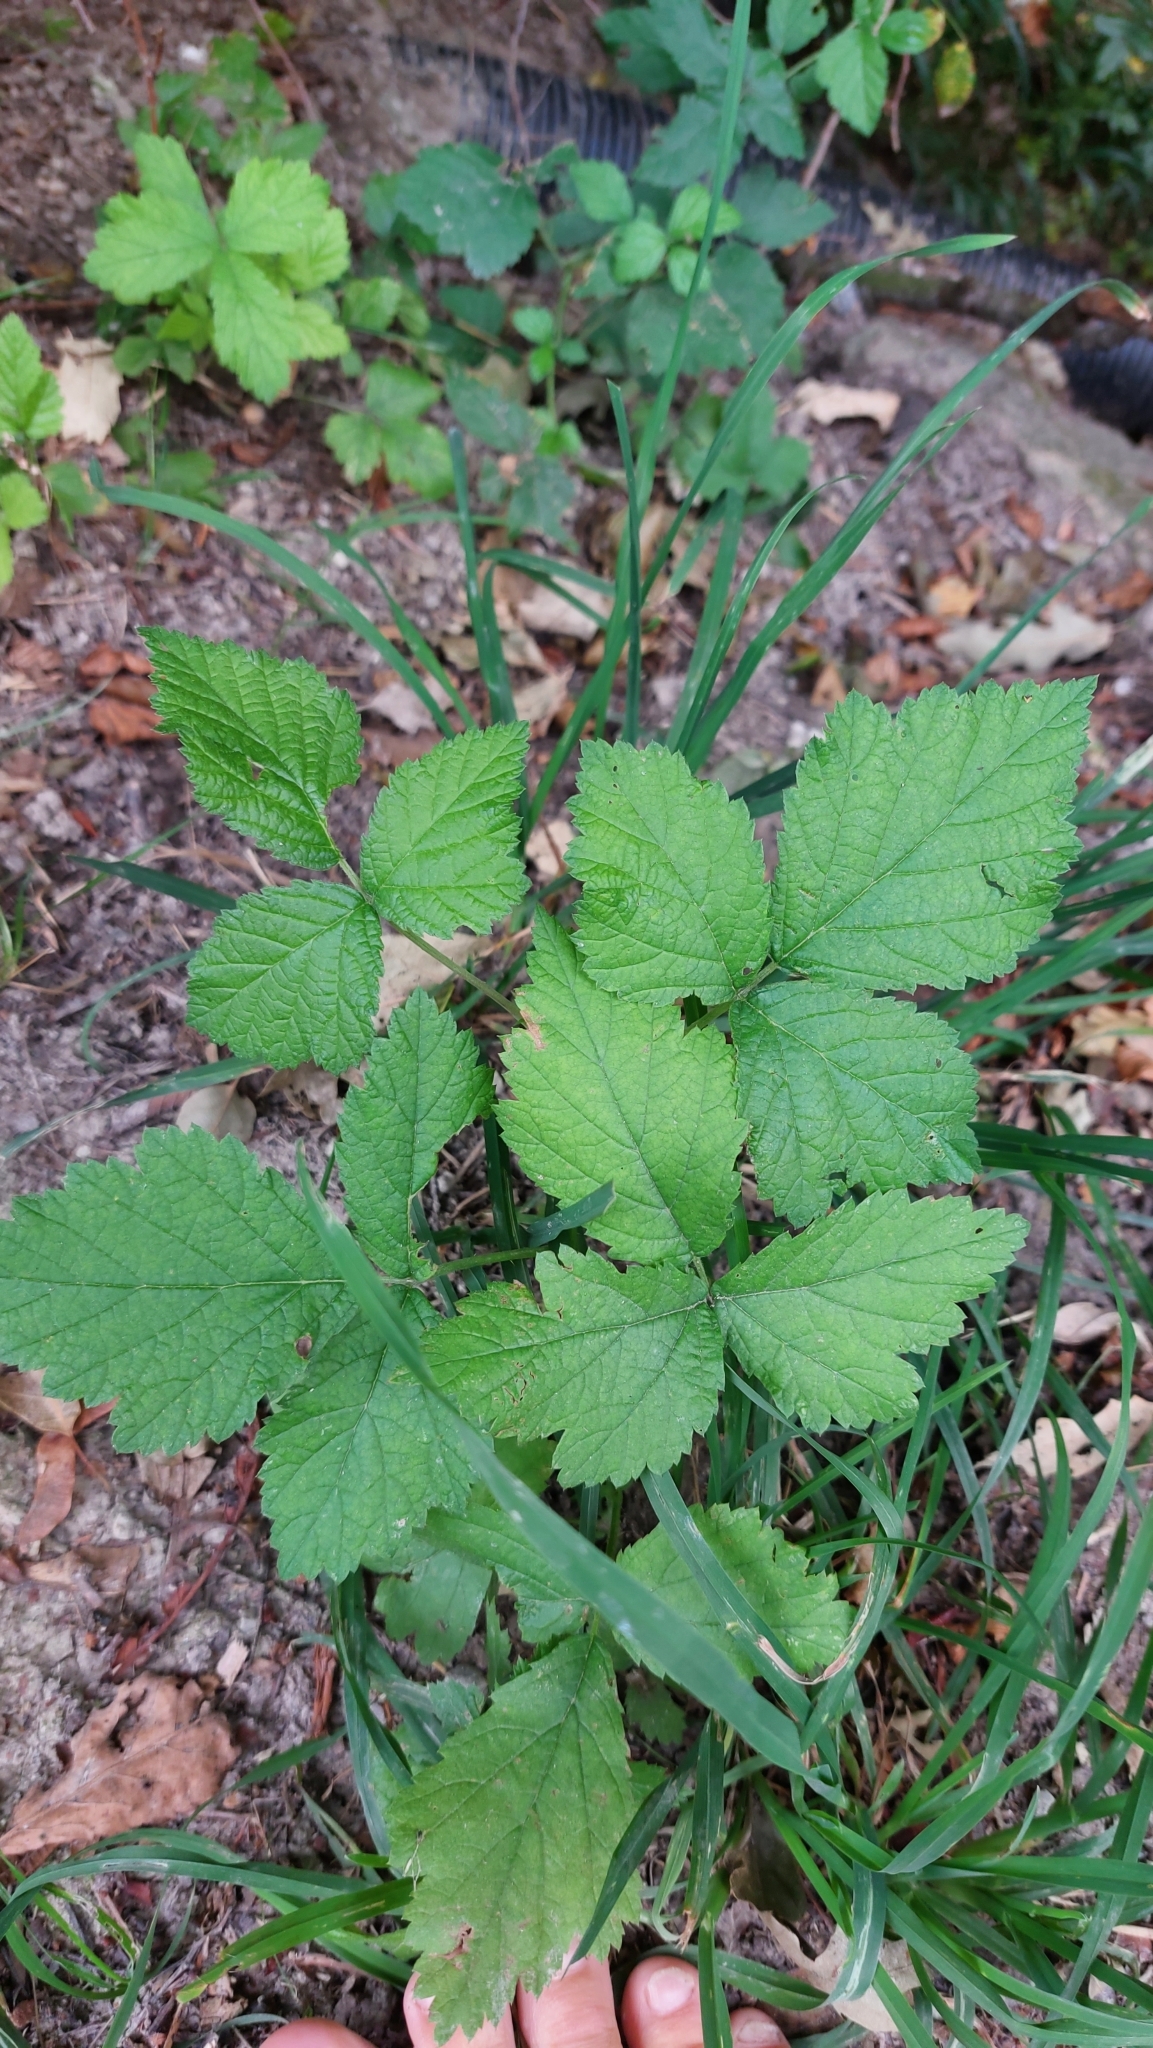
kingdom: Plantae
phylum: Tracheophyta
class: Magnoliopsida
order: Rosales
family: Rosaceae
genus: Rubus
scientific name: Rubus caesius
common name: Dewberry
